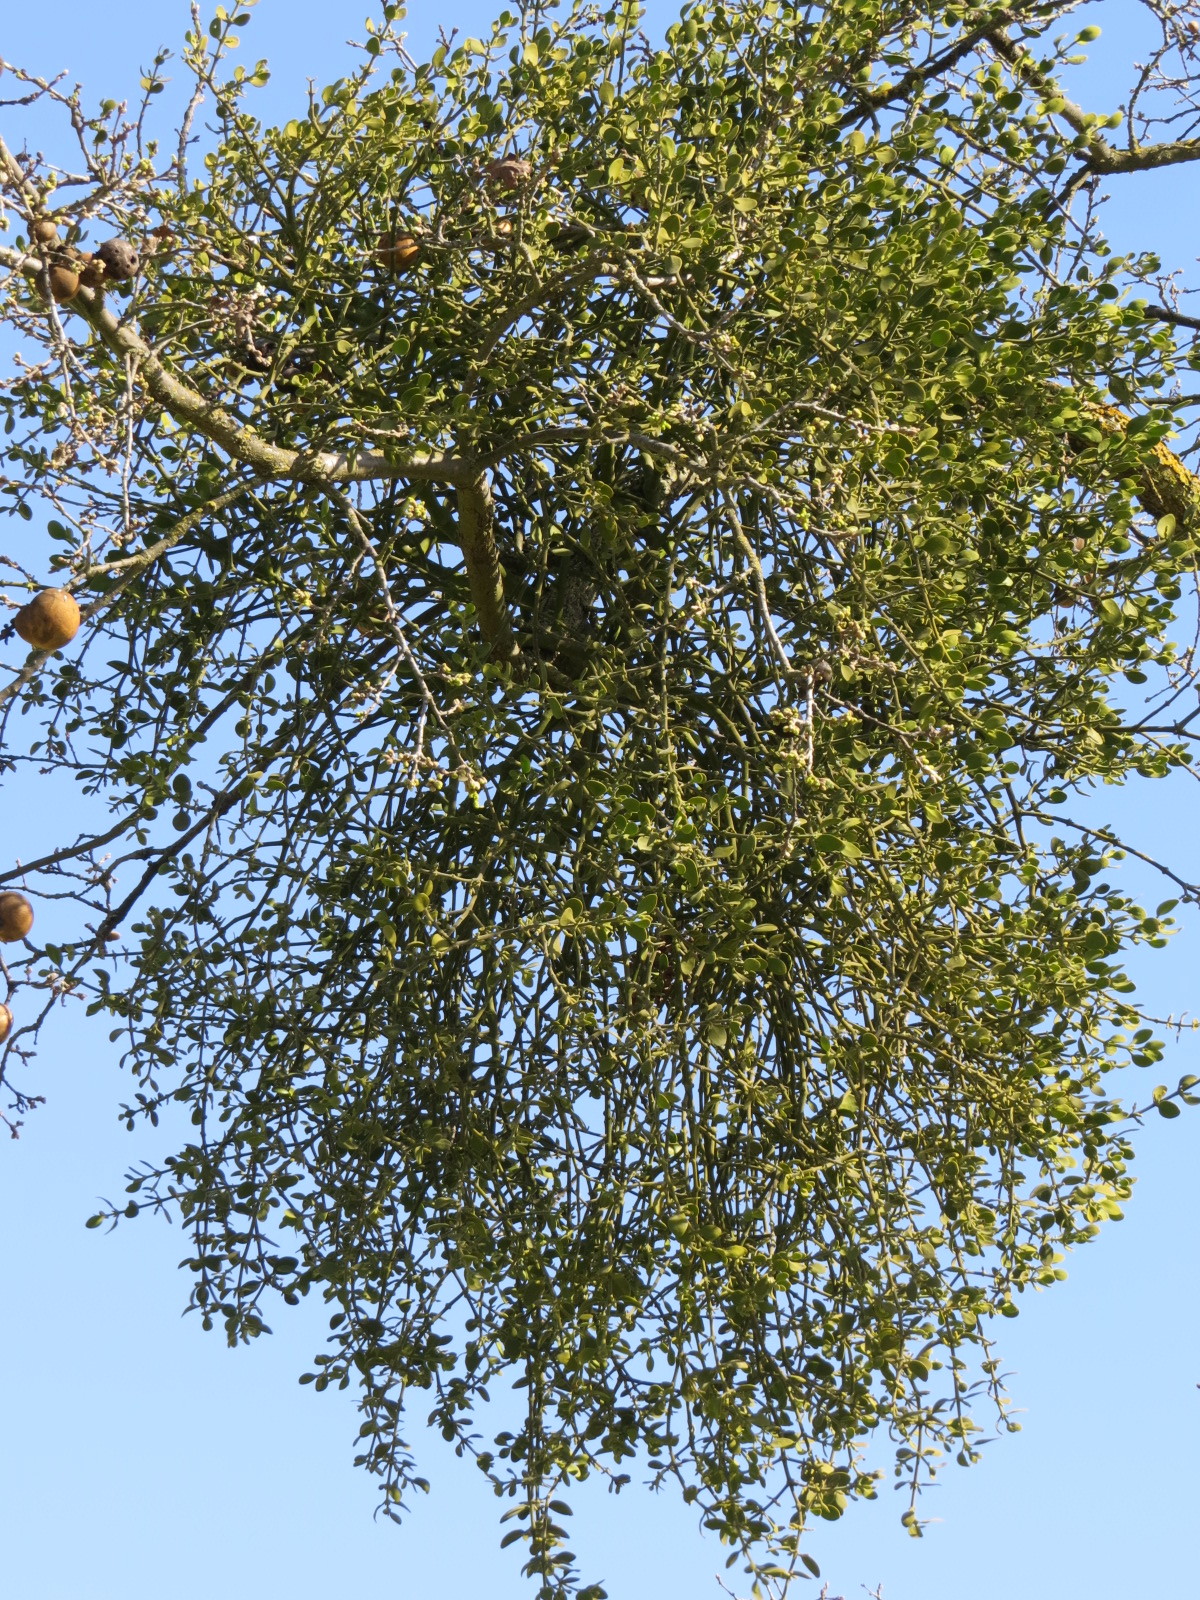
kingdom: Plantae
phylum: Tracheophyta
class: Magnoliopsida
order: Santalales
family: Viscaceae
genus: Phoradendron
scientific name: Phoradendron leucarpum
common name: Pacific mistletoe
